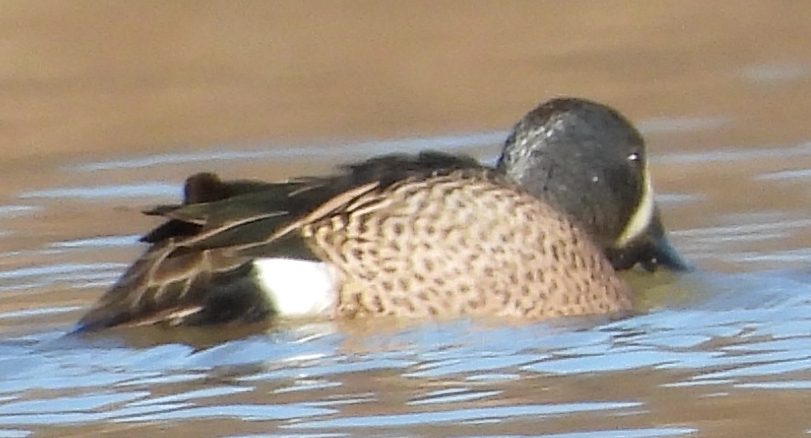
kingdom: Animalia
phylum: Chordata
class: Aves
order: Anseriformes
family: Anatidae
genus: Spatula
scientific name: Spatula discors
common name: Blue-winged teal
